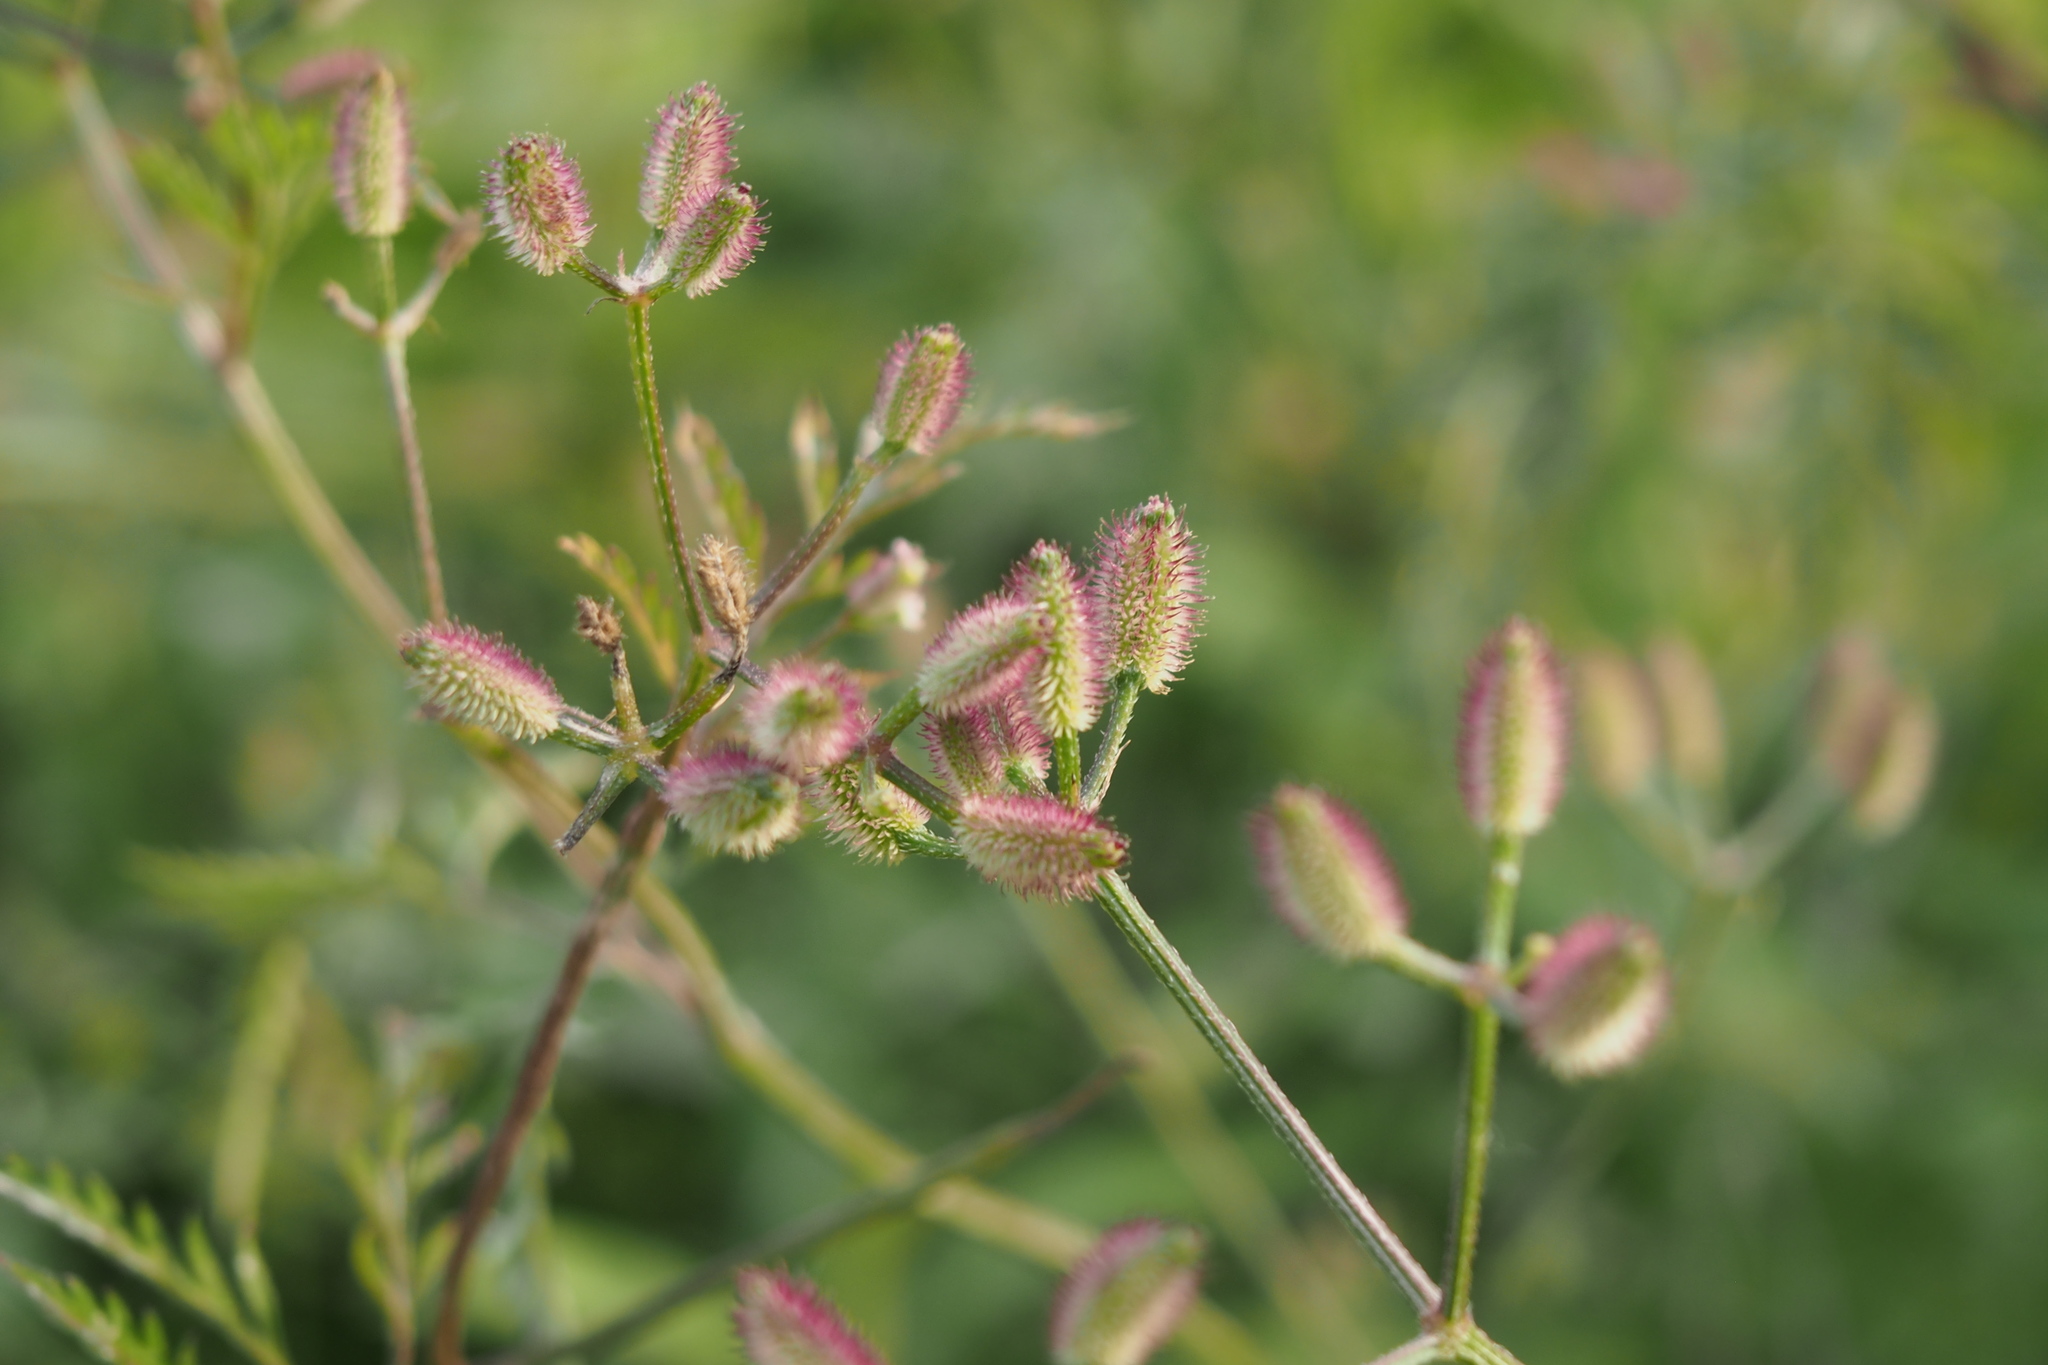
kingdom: Plantae
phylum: Tracheophyta
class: Magnoliopsida
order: Apiales
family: Apiaceae
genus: Torilis
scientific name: Torilis scabra
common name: Rough hedgeparsley
